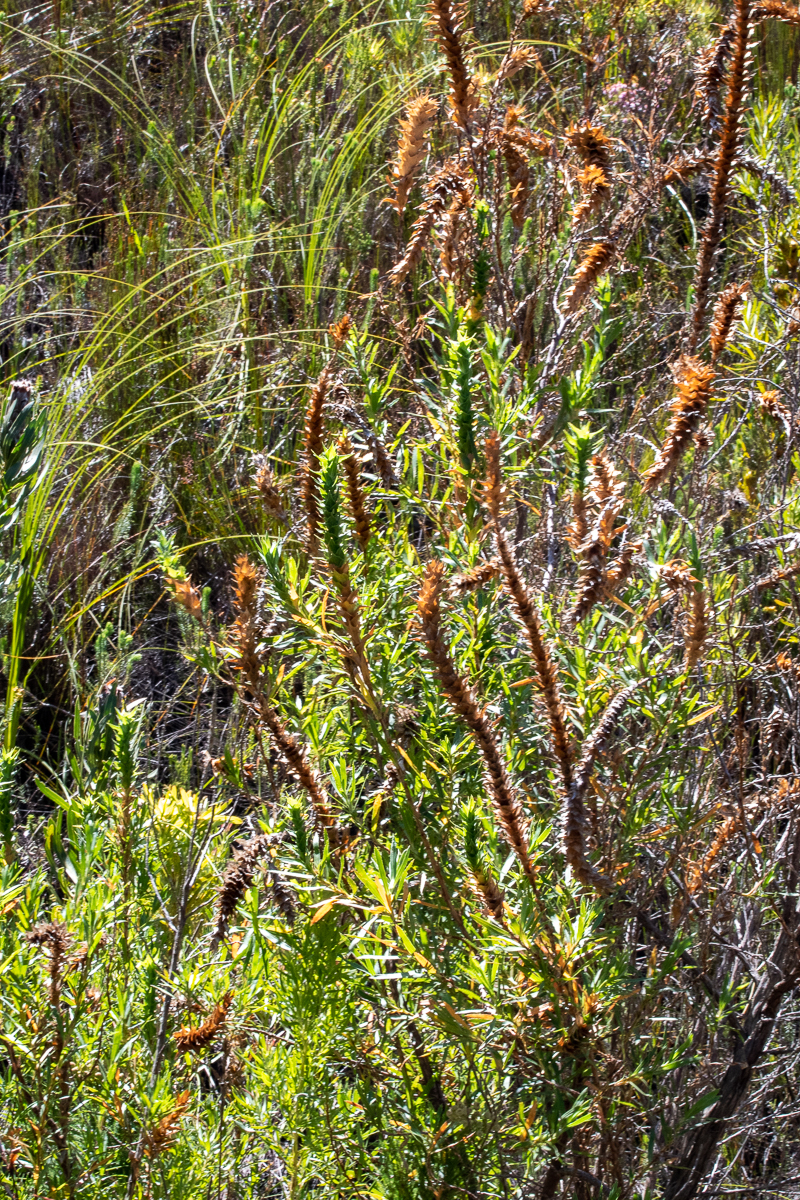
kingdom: Plantae
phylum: Tracheophyta
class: Magnoliopsida
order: Rosales
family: Rosaceae
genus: Cliffortia
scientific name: Cliffortia heterophylla
